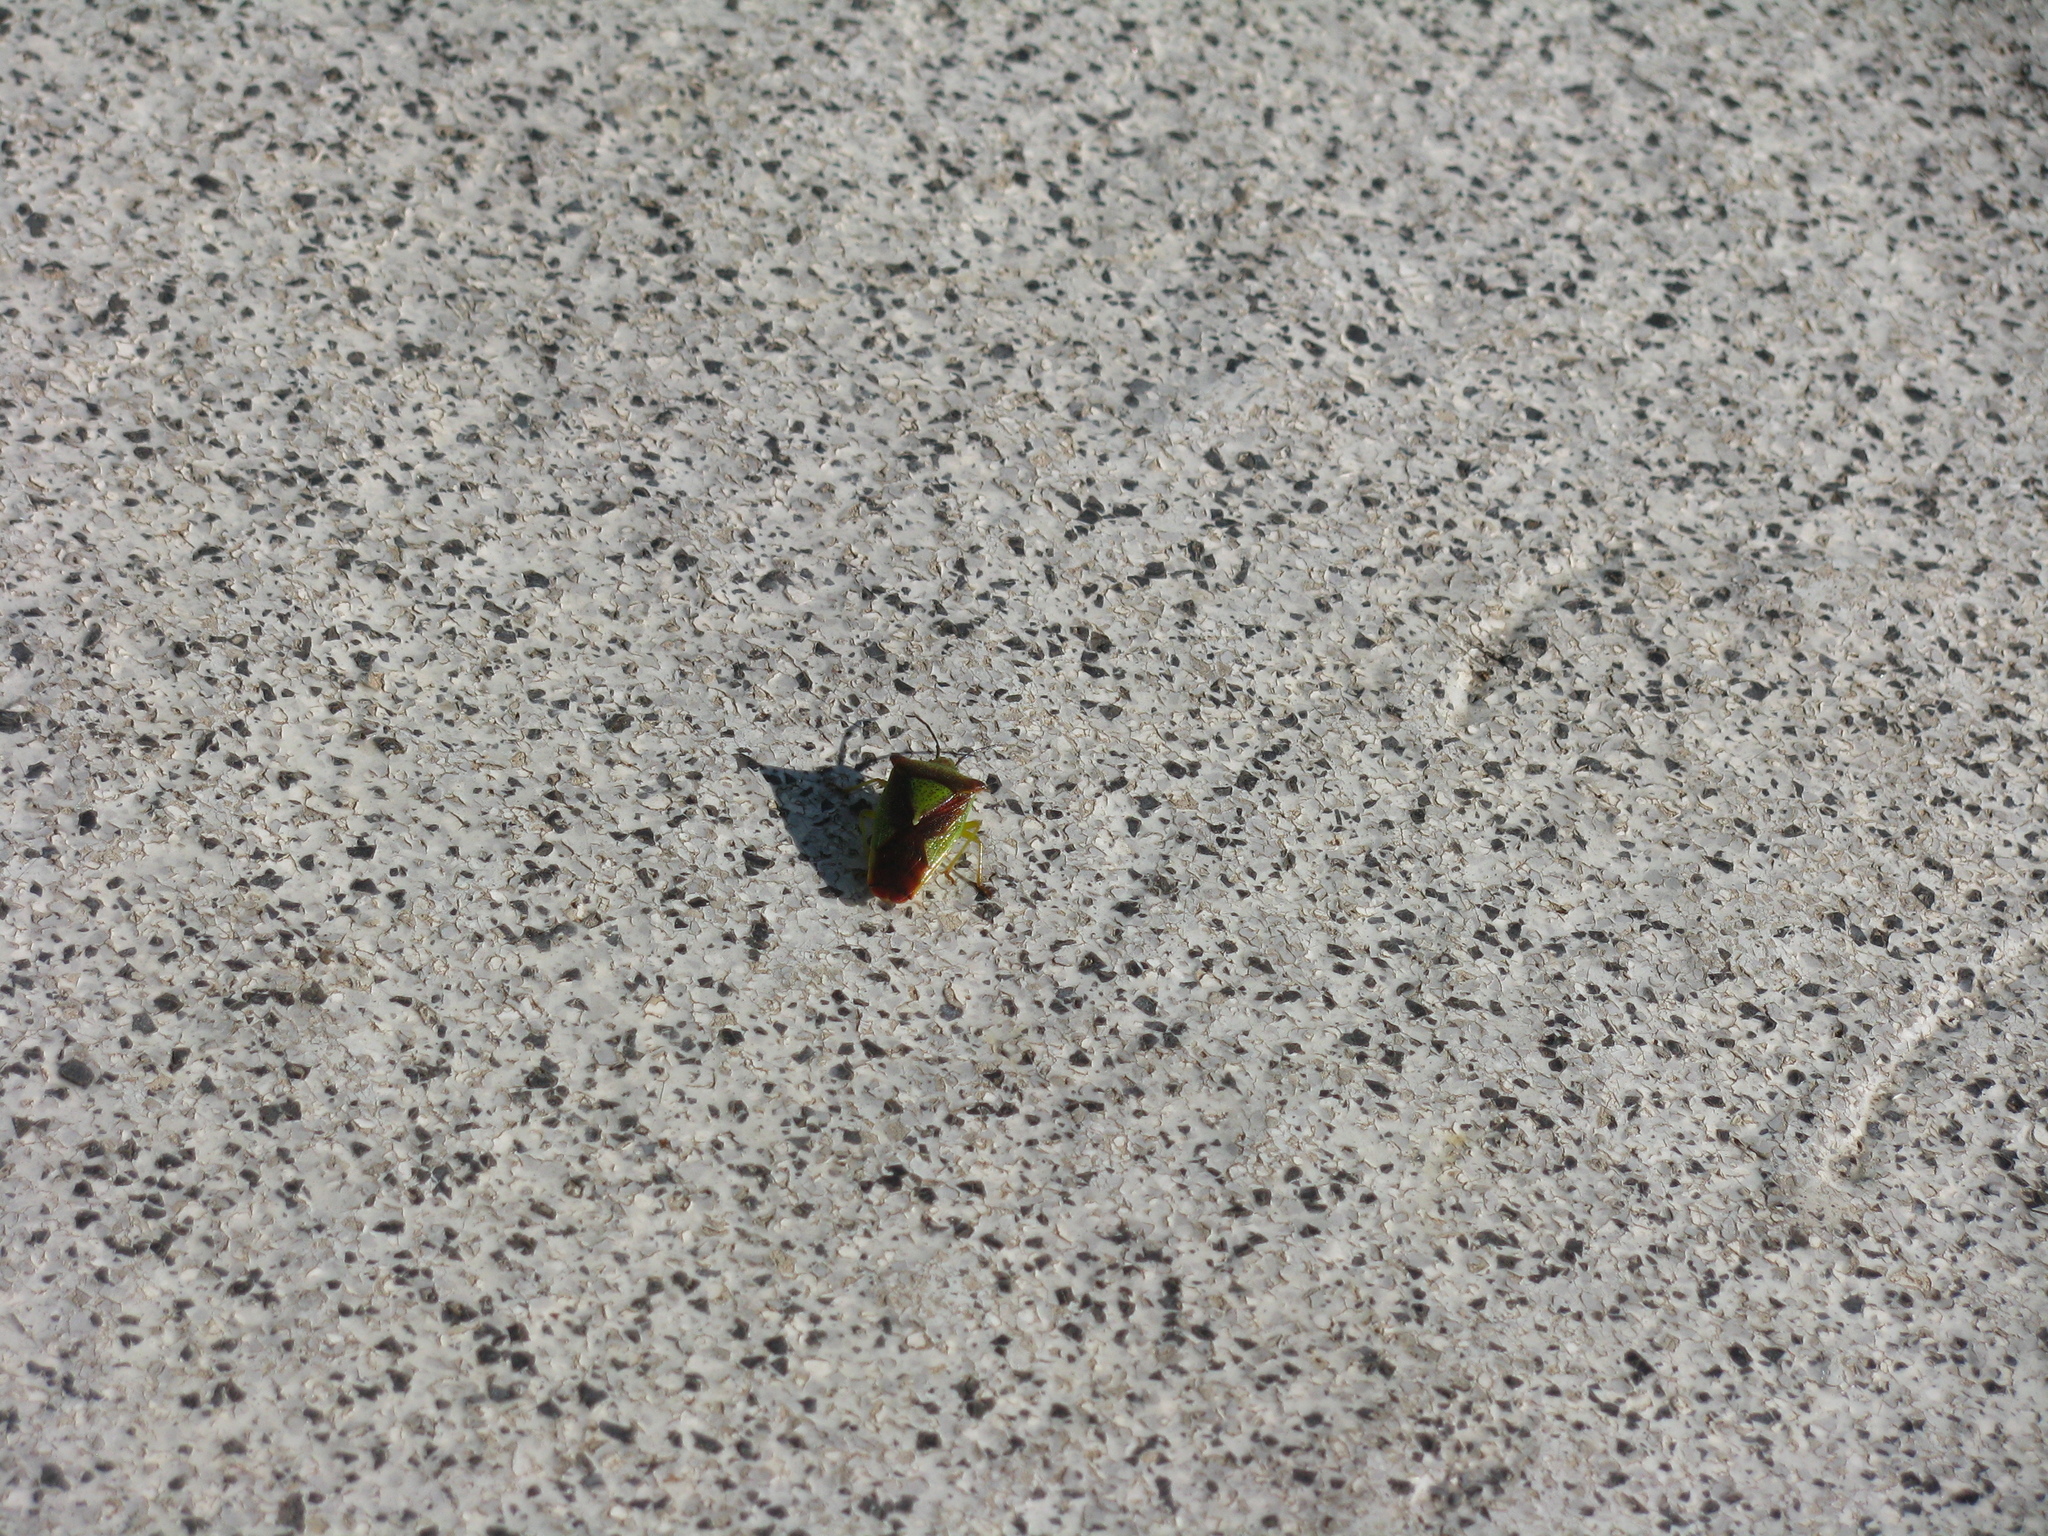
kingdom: Animalia
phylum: Arthropoda
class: Insecta
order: Hemiptera
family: Acanthosomatidae
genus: Acanthosoma
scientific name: Acanthosoma haemorrhoidale
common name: Hawthorn shieldbug
